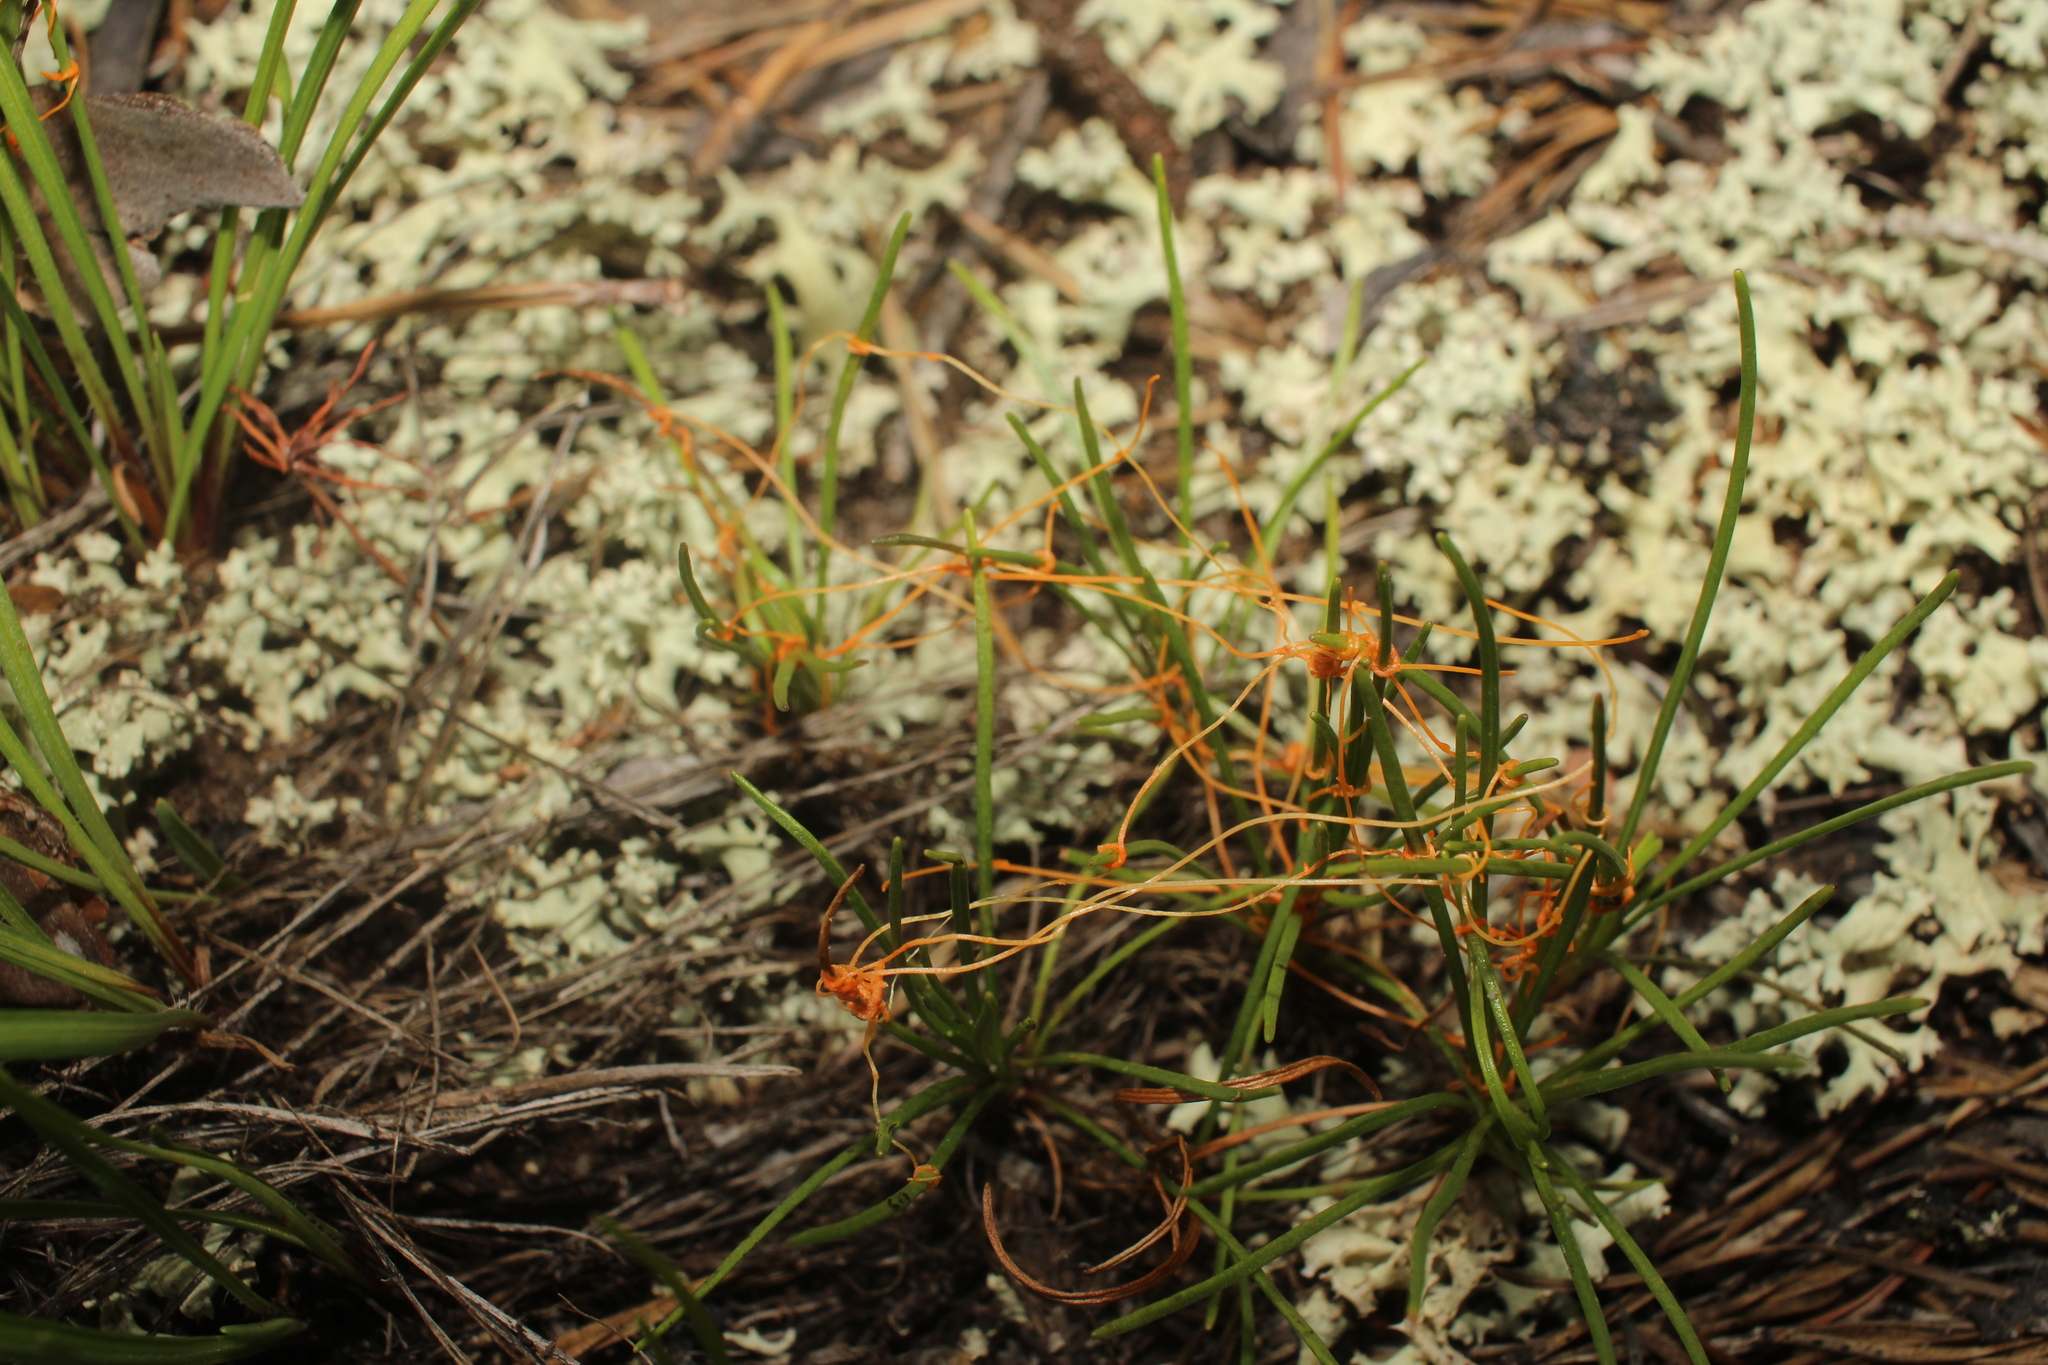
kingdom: Plantae
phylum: Tracheophyta
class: Magnoliopsida
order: Solanales
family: Convolvulaceae
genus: Cuscuta
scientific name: Cuscuta harperi
